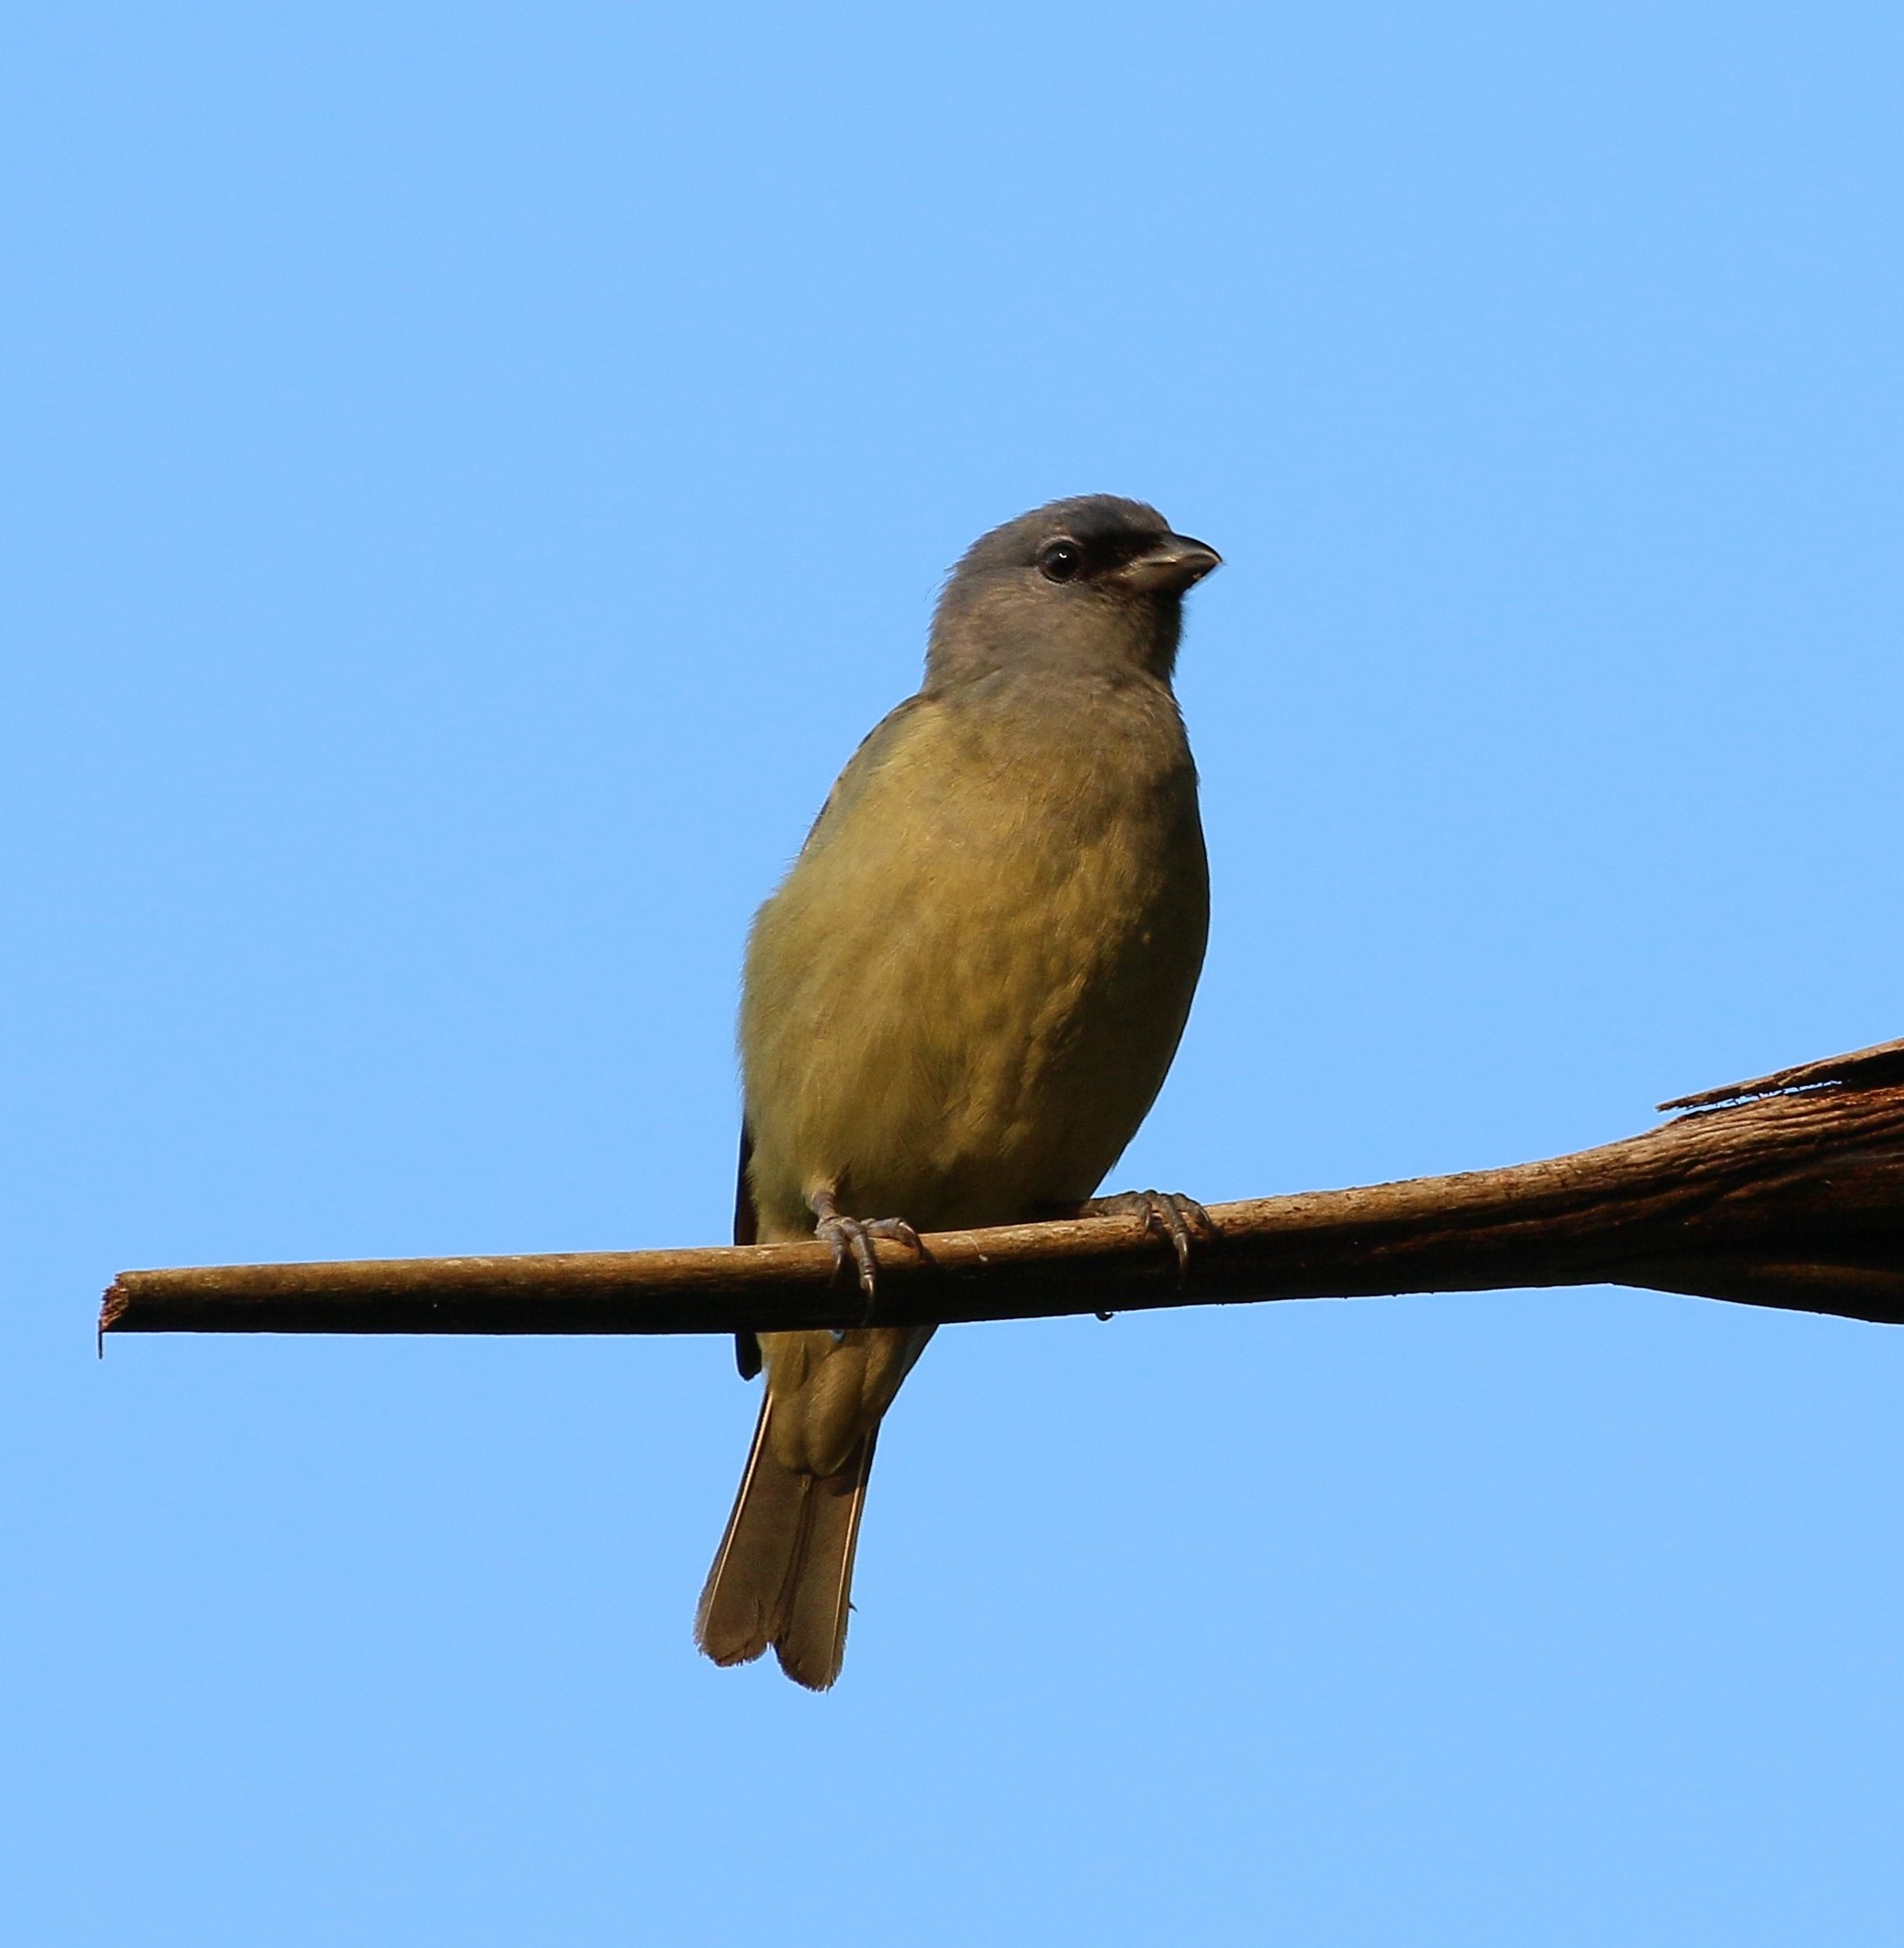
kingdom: Animalia
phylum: Chordata
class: Aves
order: Passeriformes
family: Thraupidae
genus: Thraupis
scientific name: Thraupis abbas
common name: Yellow-winged tanager
